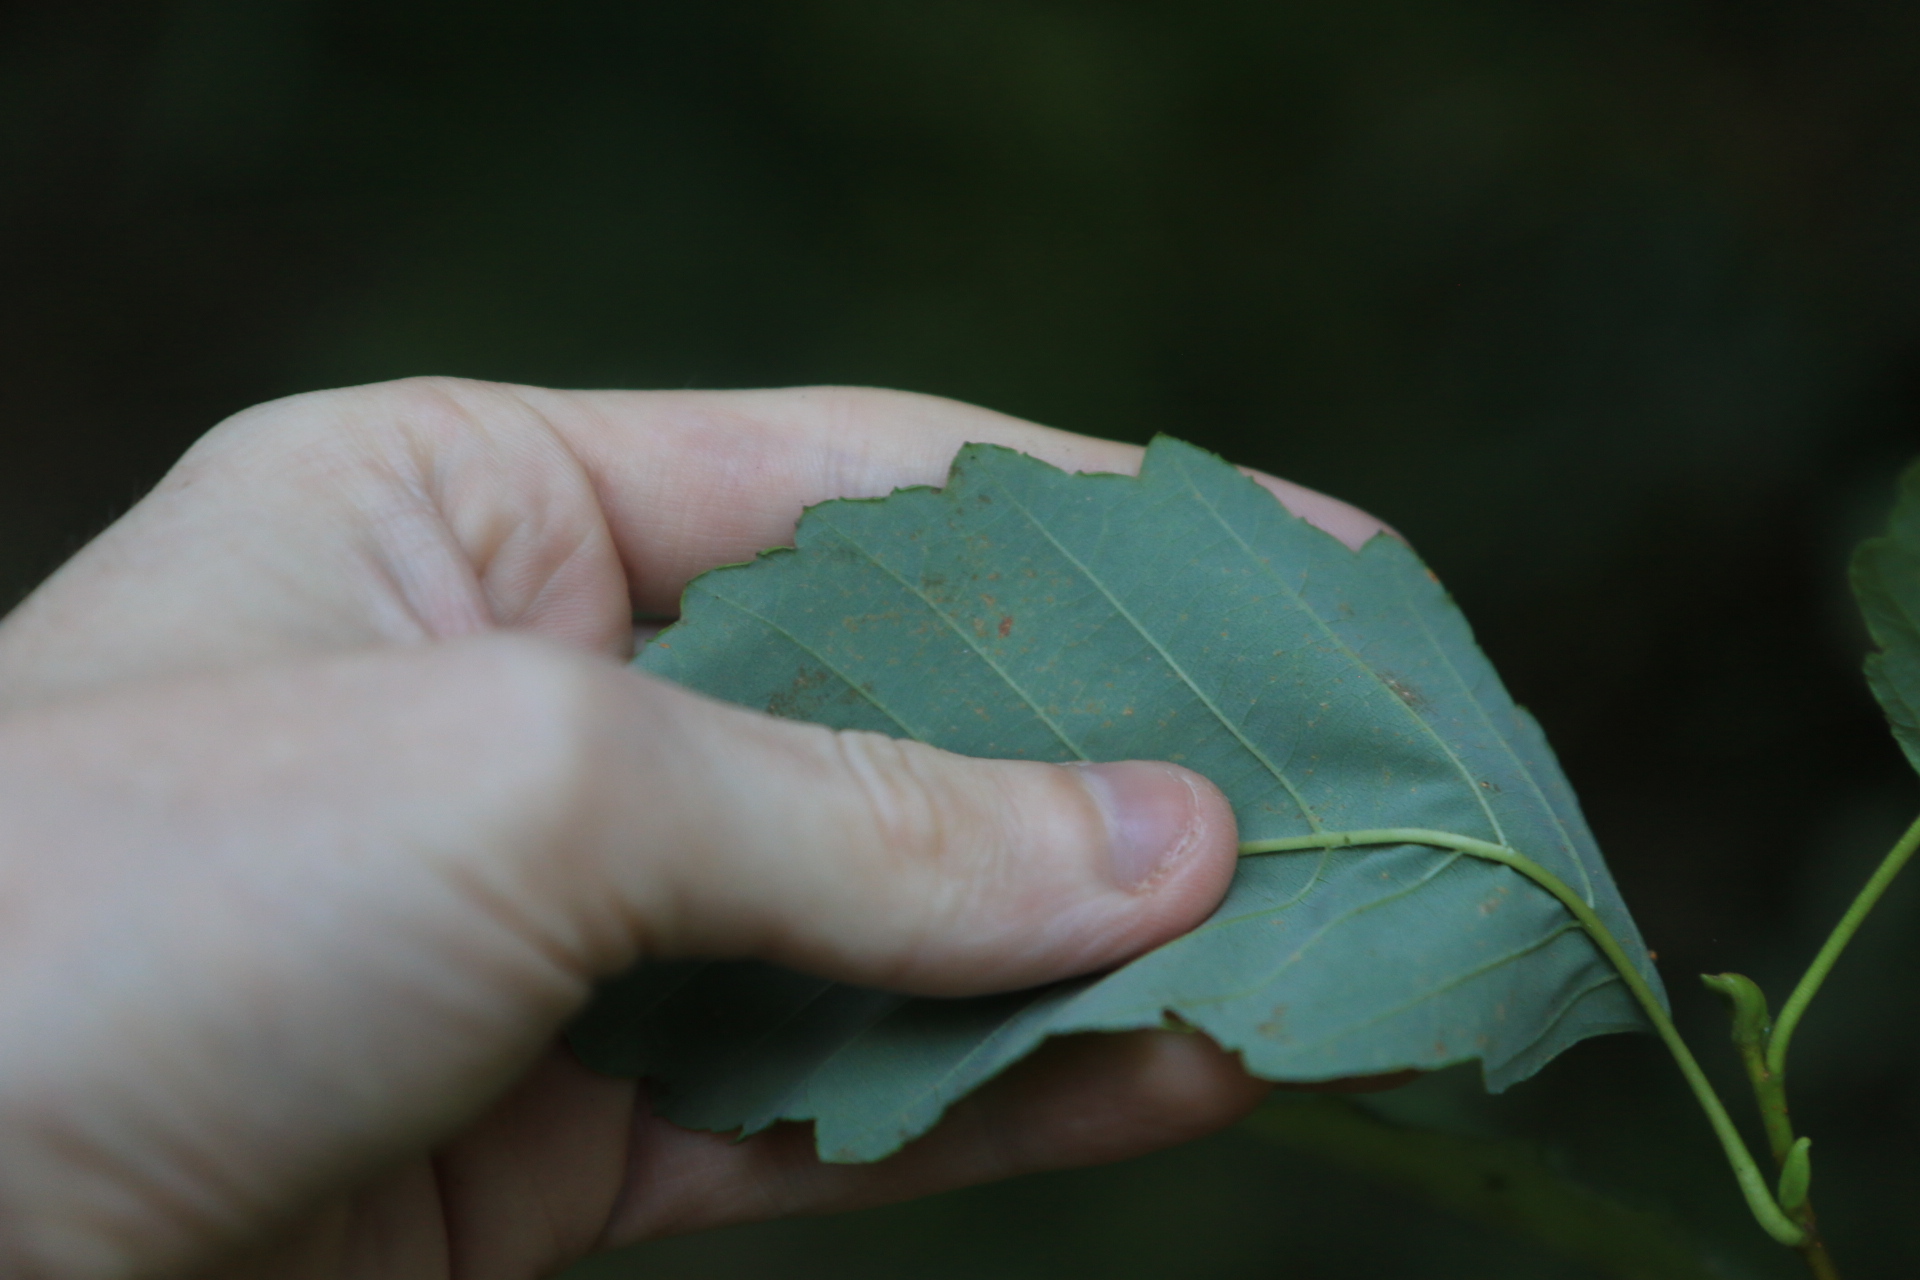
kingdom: Plantae
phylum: Tracheophyta
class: Magnoliopsida
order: Fagales
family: Betulaceae
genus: Alnus
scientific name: Alnus rubra
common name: Red alder
